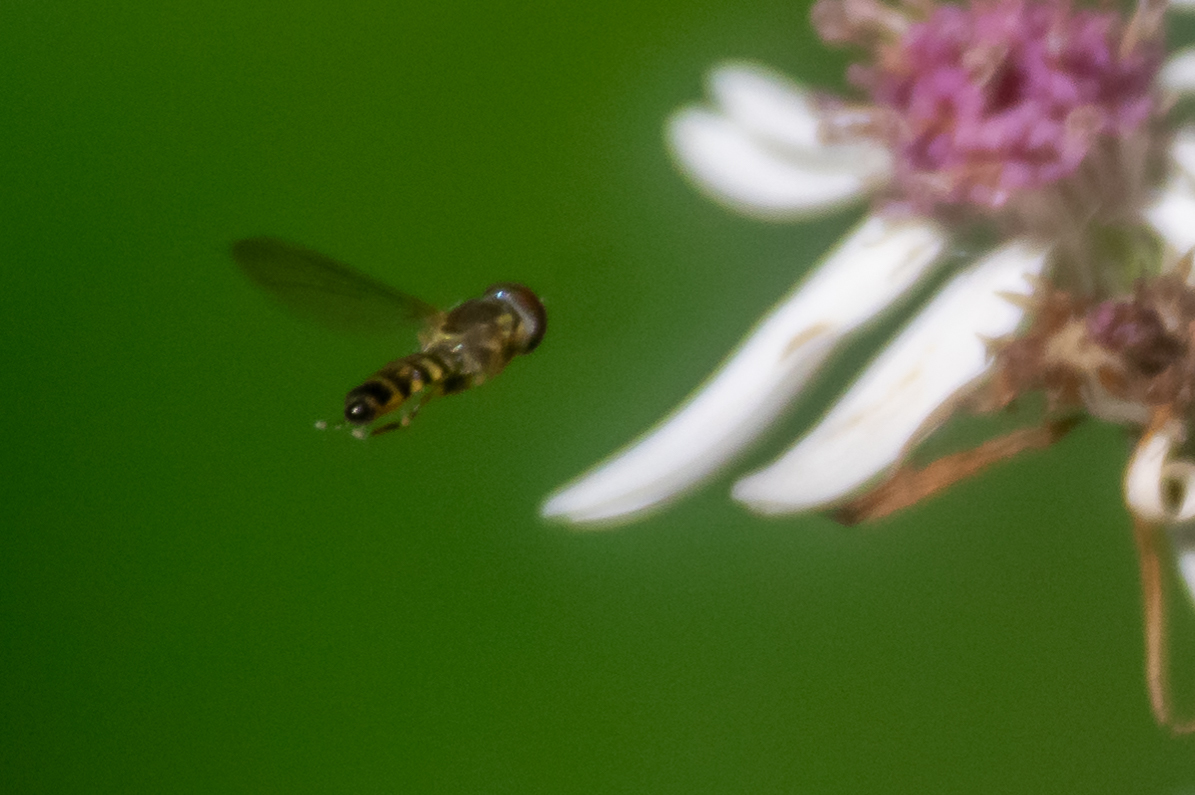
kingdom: Animalia
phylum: Arthropoda
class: Insecta
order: Diptera
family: Syrphidae
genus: Toxomerus
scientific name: Toxomerus geminatus
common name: Eastern calligrapher
